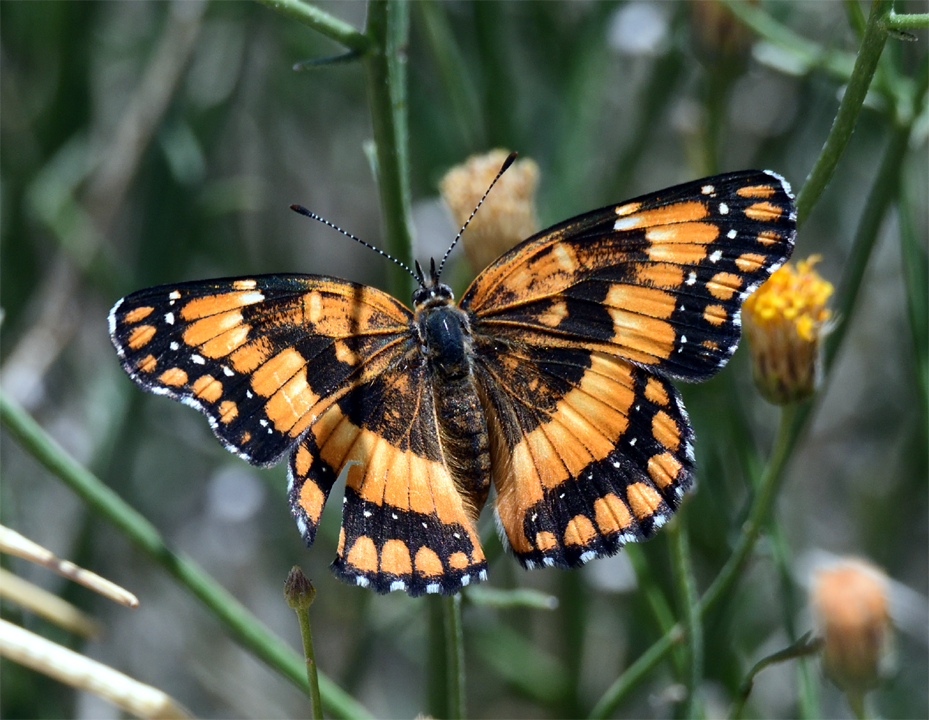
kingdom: Animalia
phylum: Arthropoda
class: Insecta
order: Lepidoptera
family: Nymphalidae
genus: Chlosyne
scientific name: Chlosyne californica
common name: California patch
